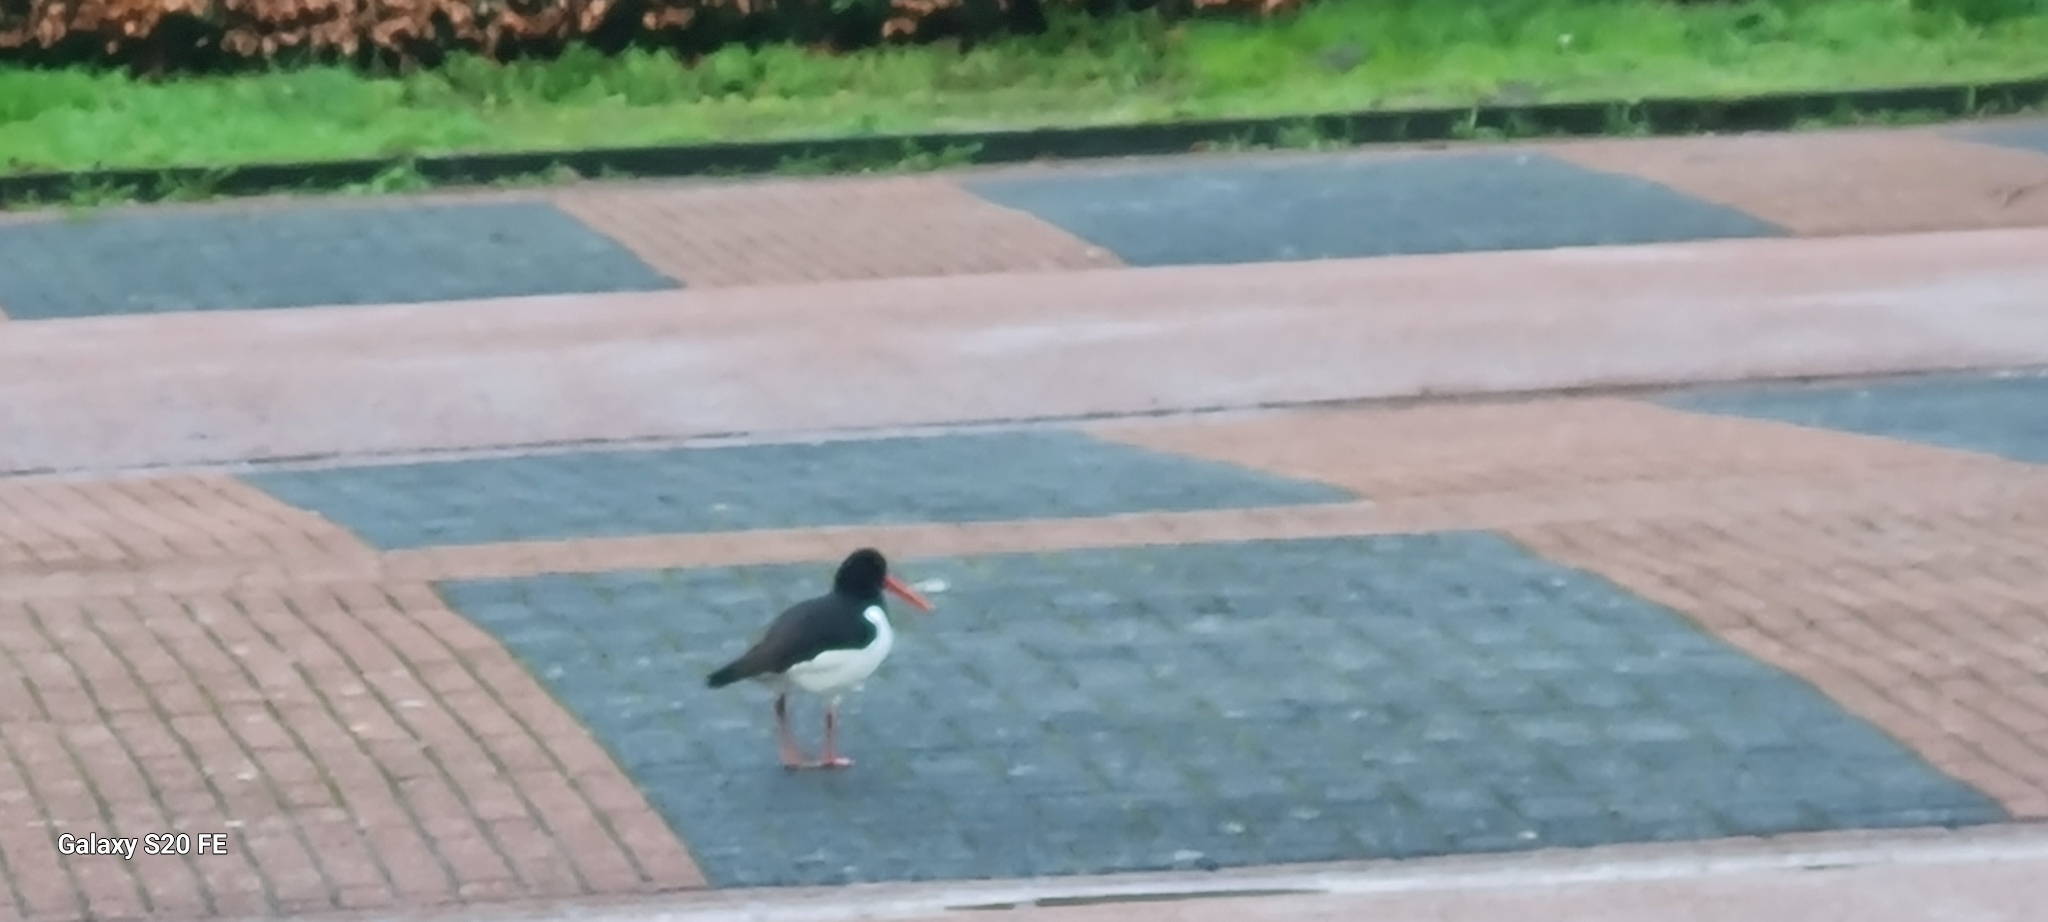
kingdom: Animalia
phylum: Chordata
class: Aves
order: Charadriiformes
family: Haematopodidae
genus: Haematopus
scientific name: Haematopus ostralegus
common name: Eurasian oystercatcher
